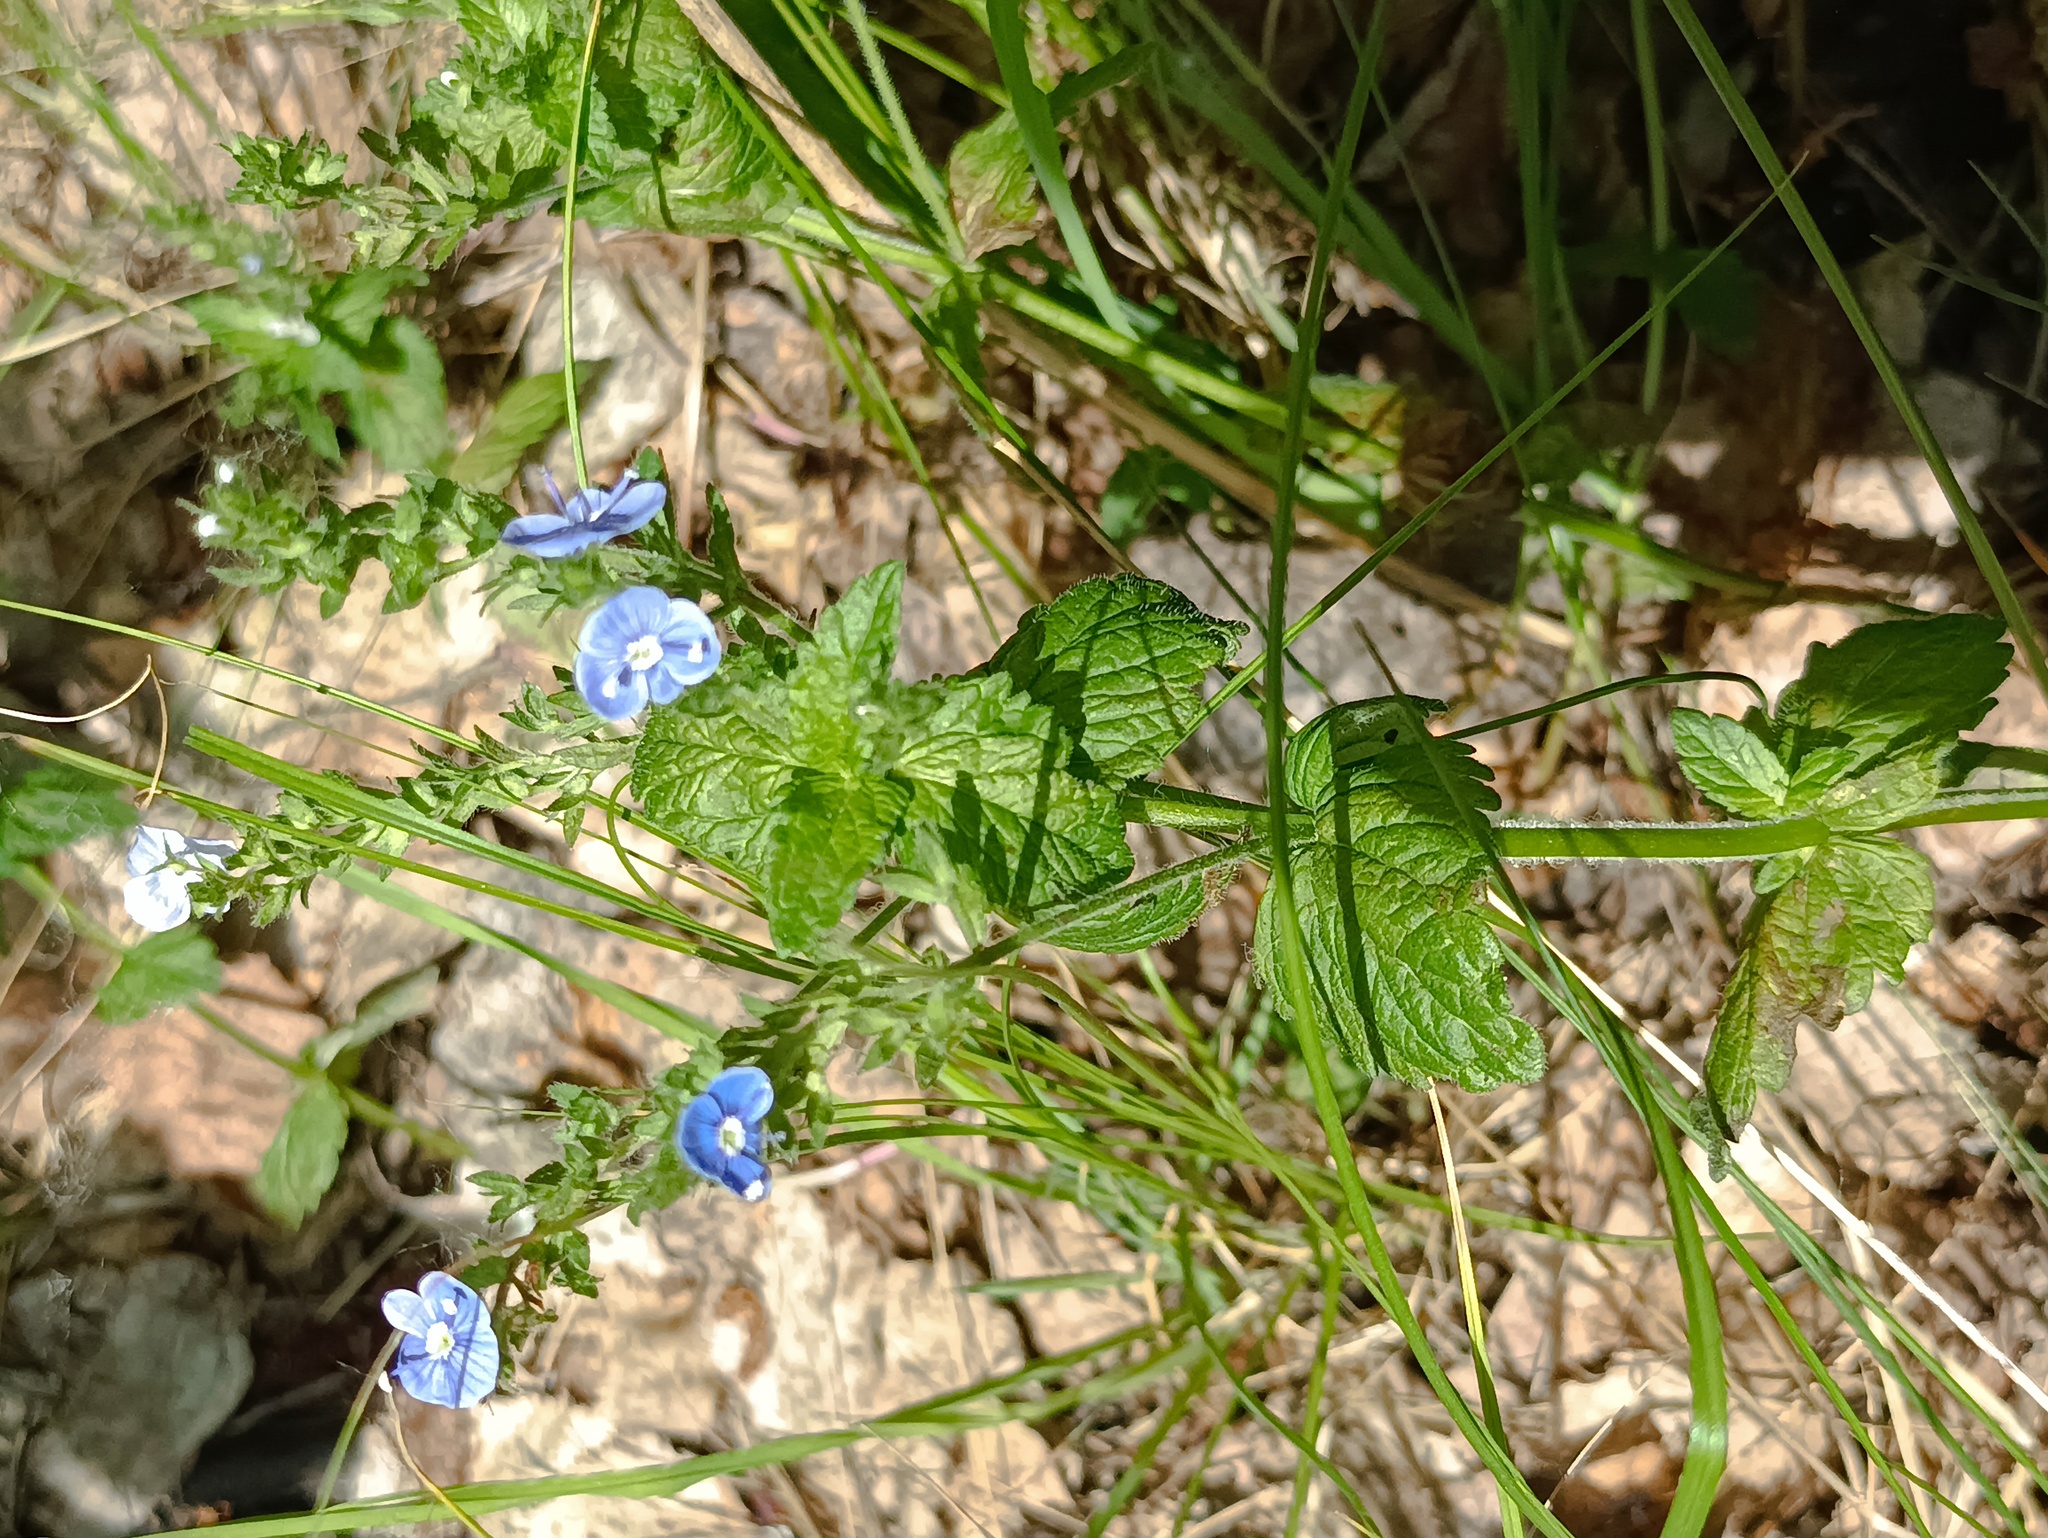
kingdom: Plantae
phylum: Tracheophyta
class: Magnoliopsida
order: Lamiales
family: Plantaginaceae
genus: Veronica
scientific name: Veronica chamaedrys
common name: Germander speedwell
